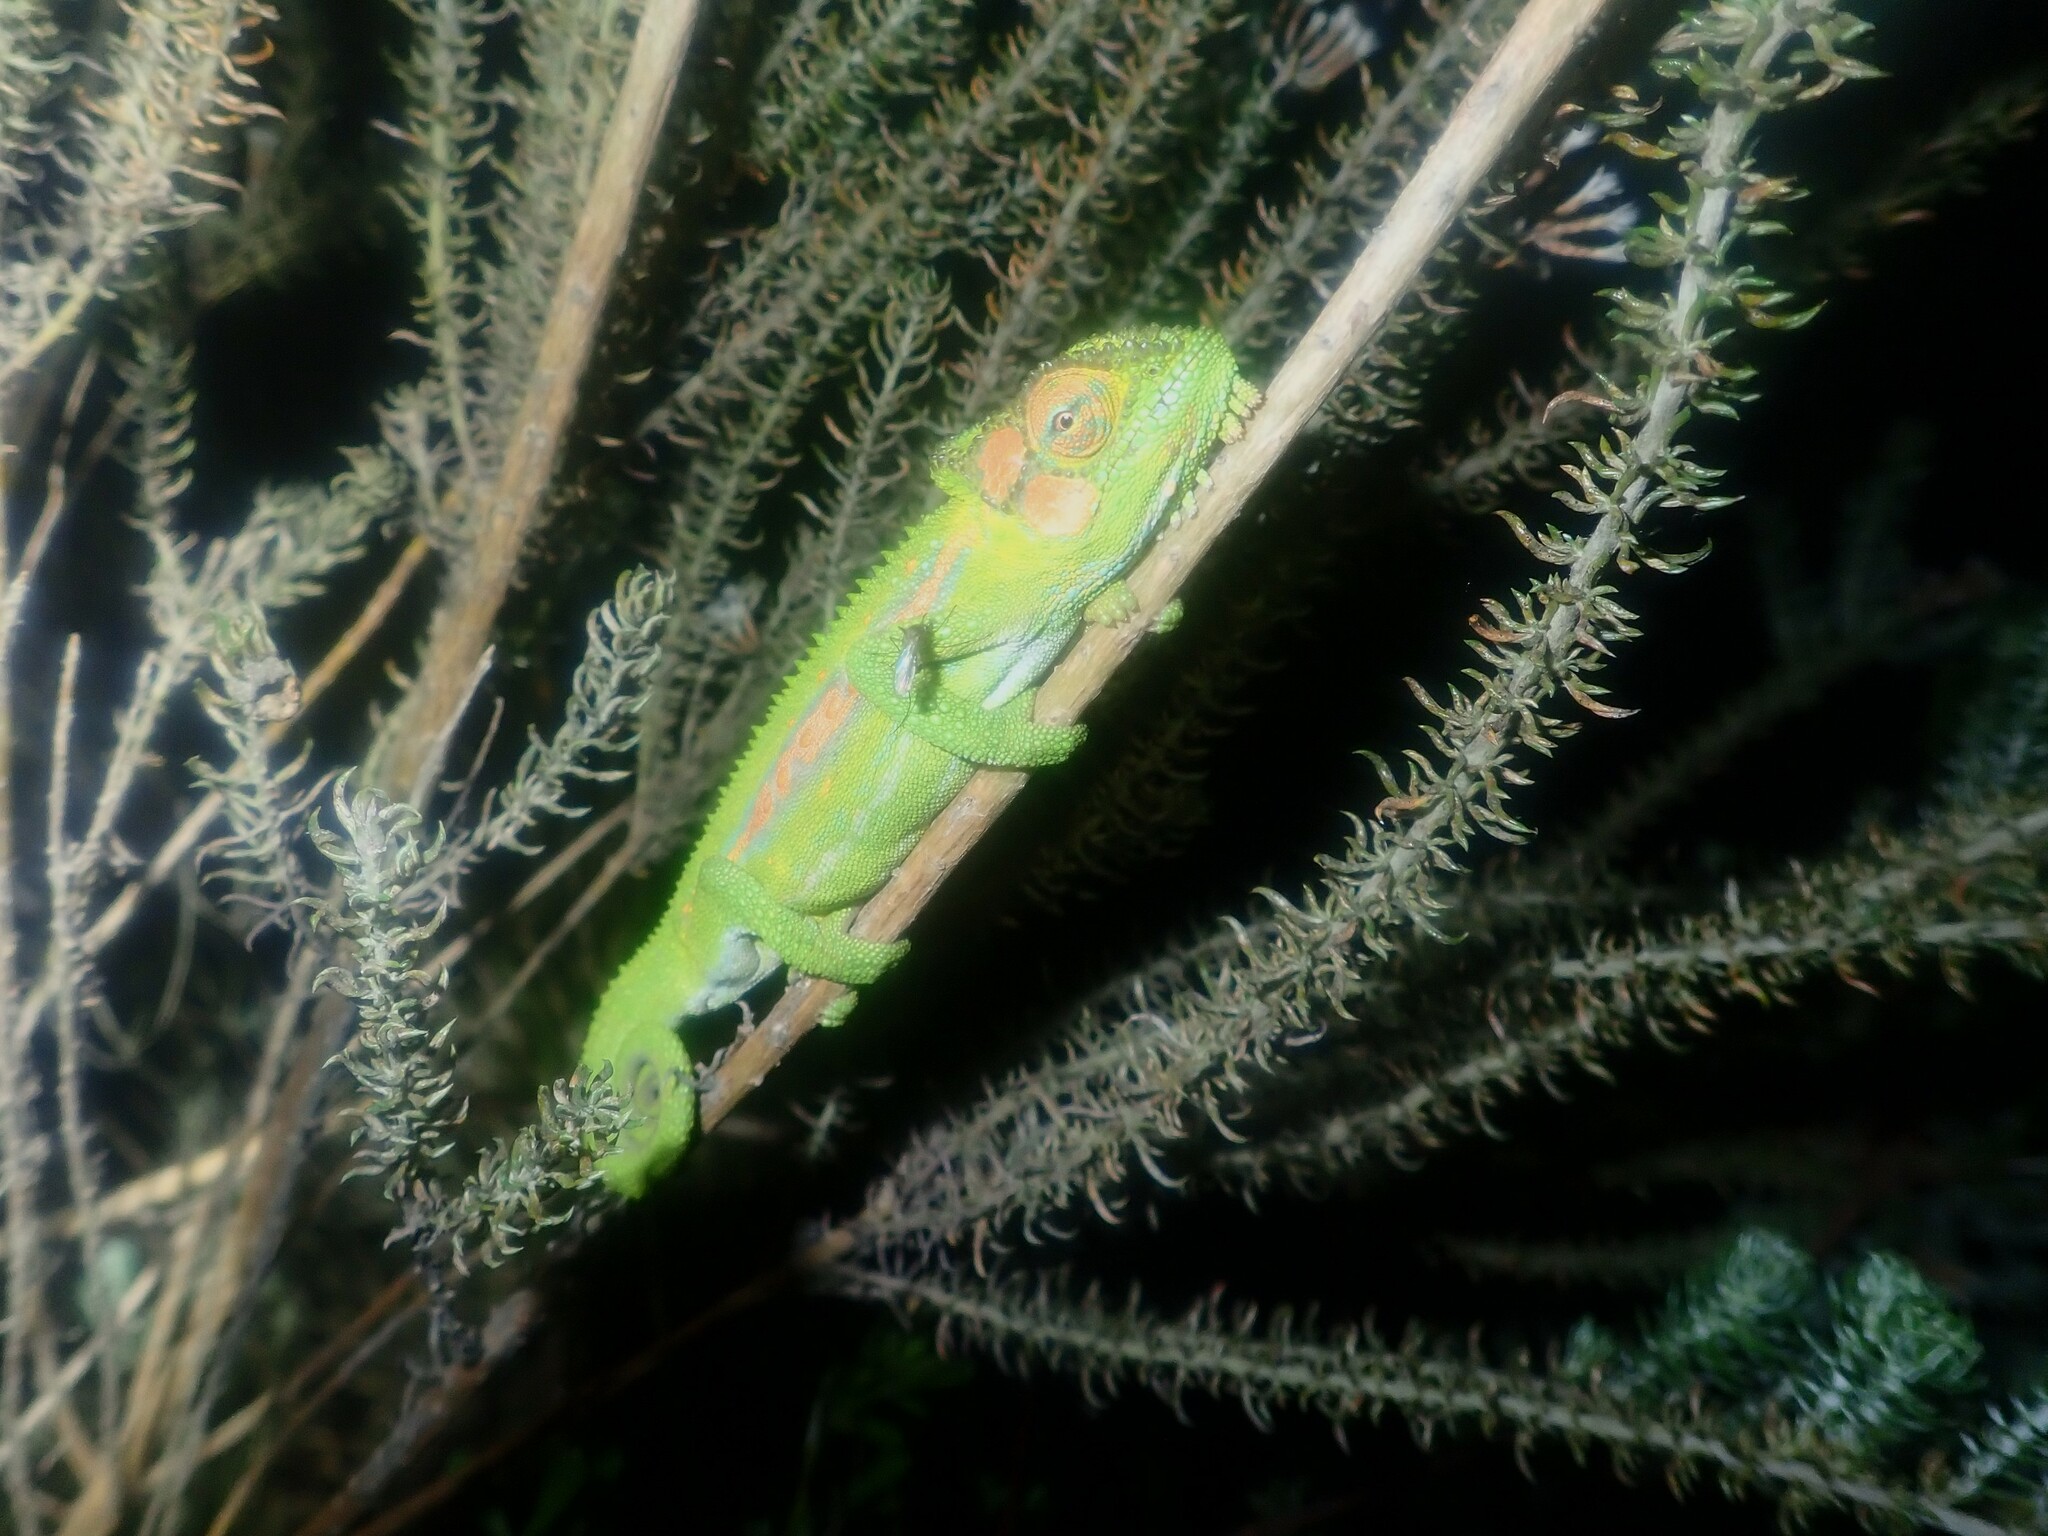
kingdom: Animalia
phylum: Chordata
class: Squamata
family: Chamaeleonidae
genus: Bradypodion
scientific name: Bradypodion pumilum
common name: Cape dwarf chameleon
